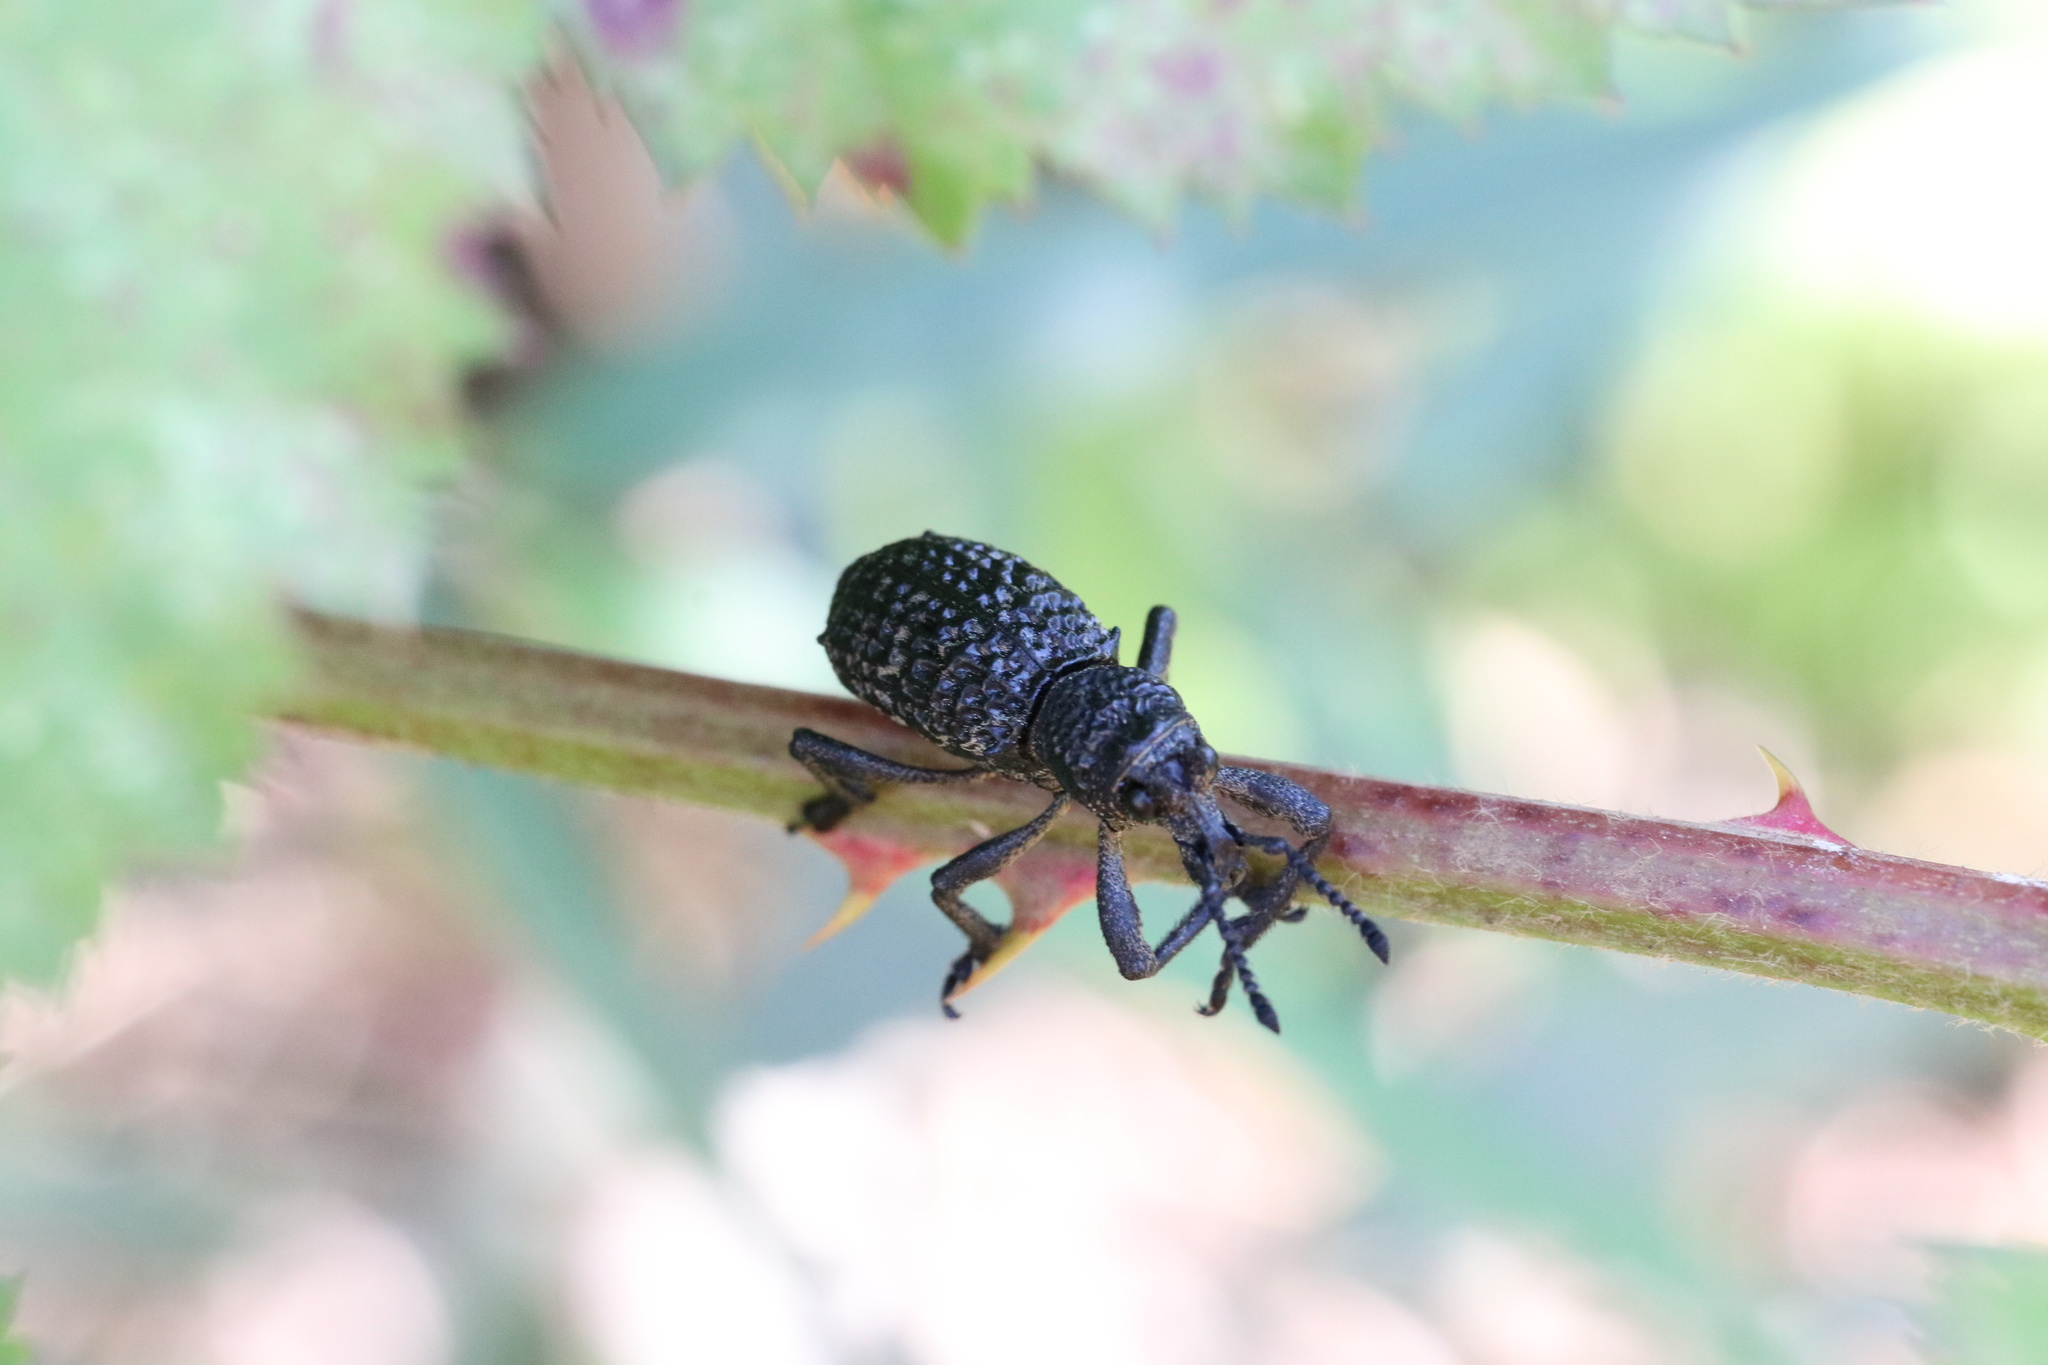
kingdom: Animalia
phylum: Arthropoda
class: Insecta
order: Coleoptera
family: Curculionidae
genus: Aegorhinus
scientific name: Aegorhinus superciliosus
